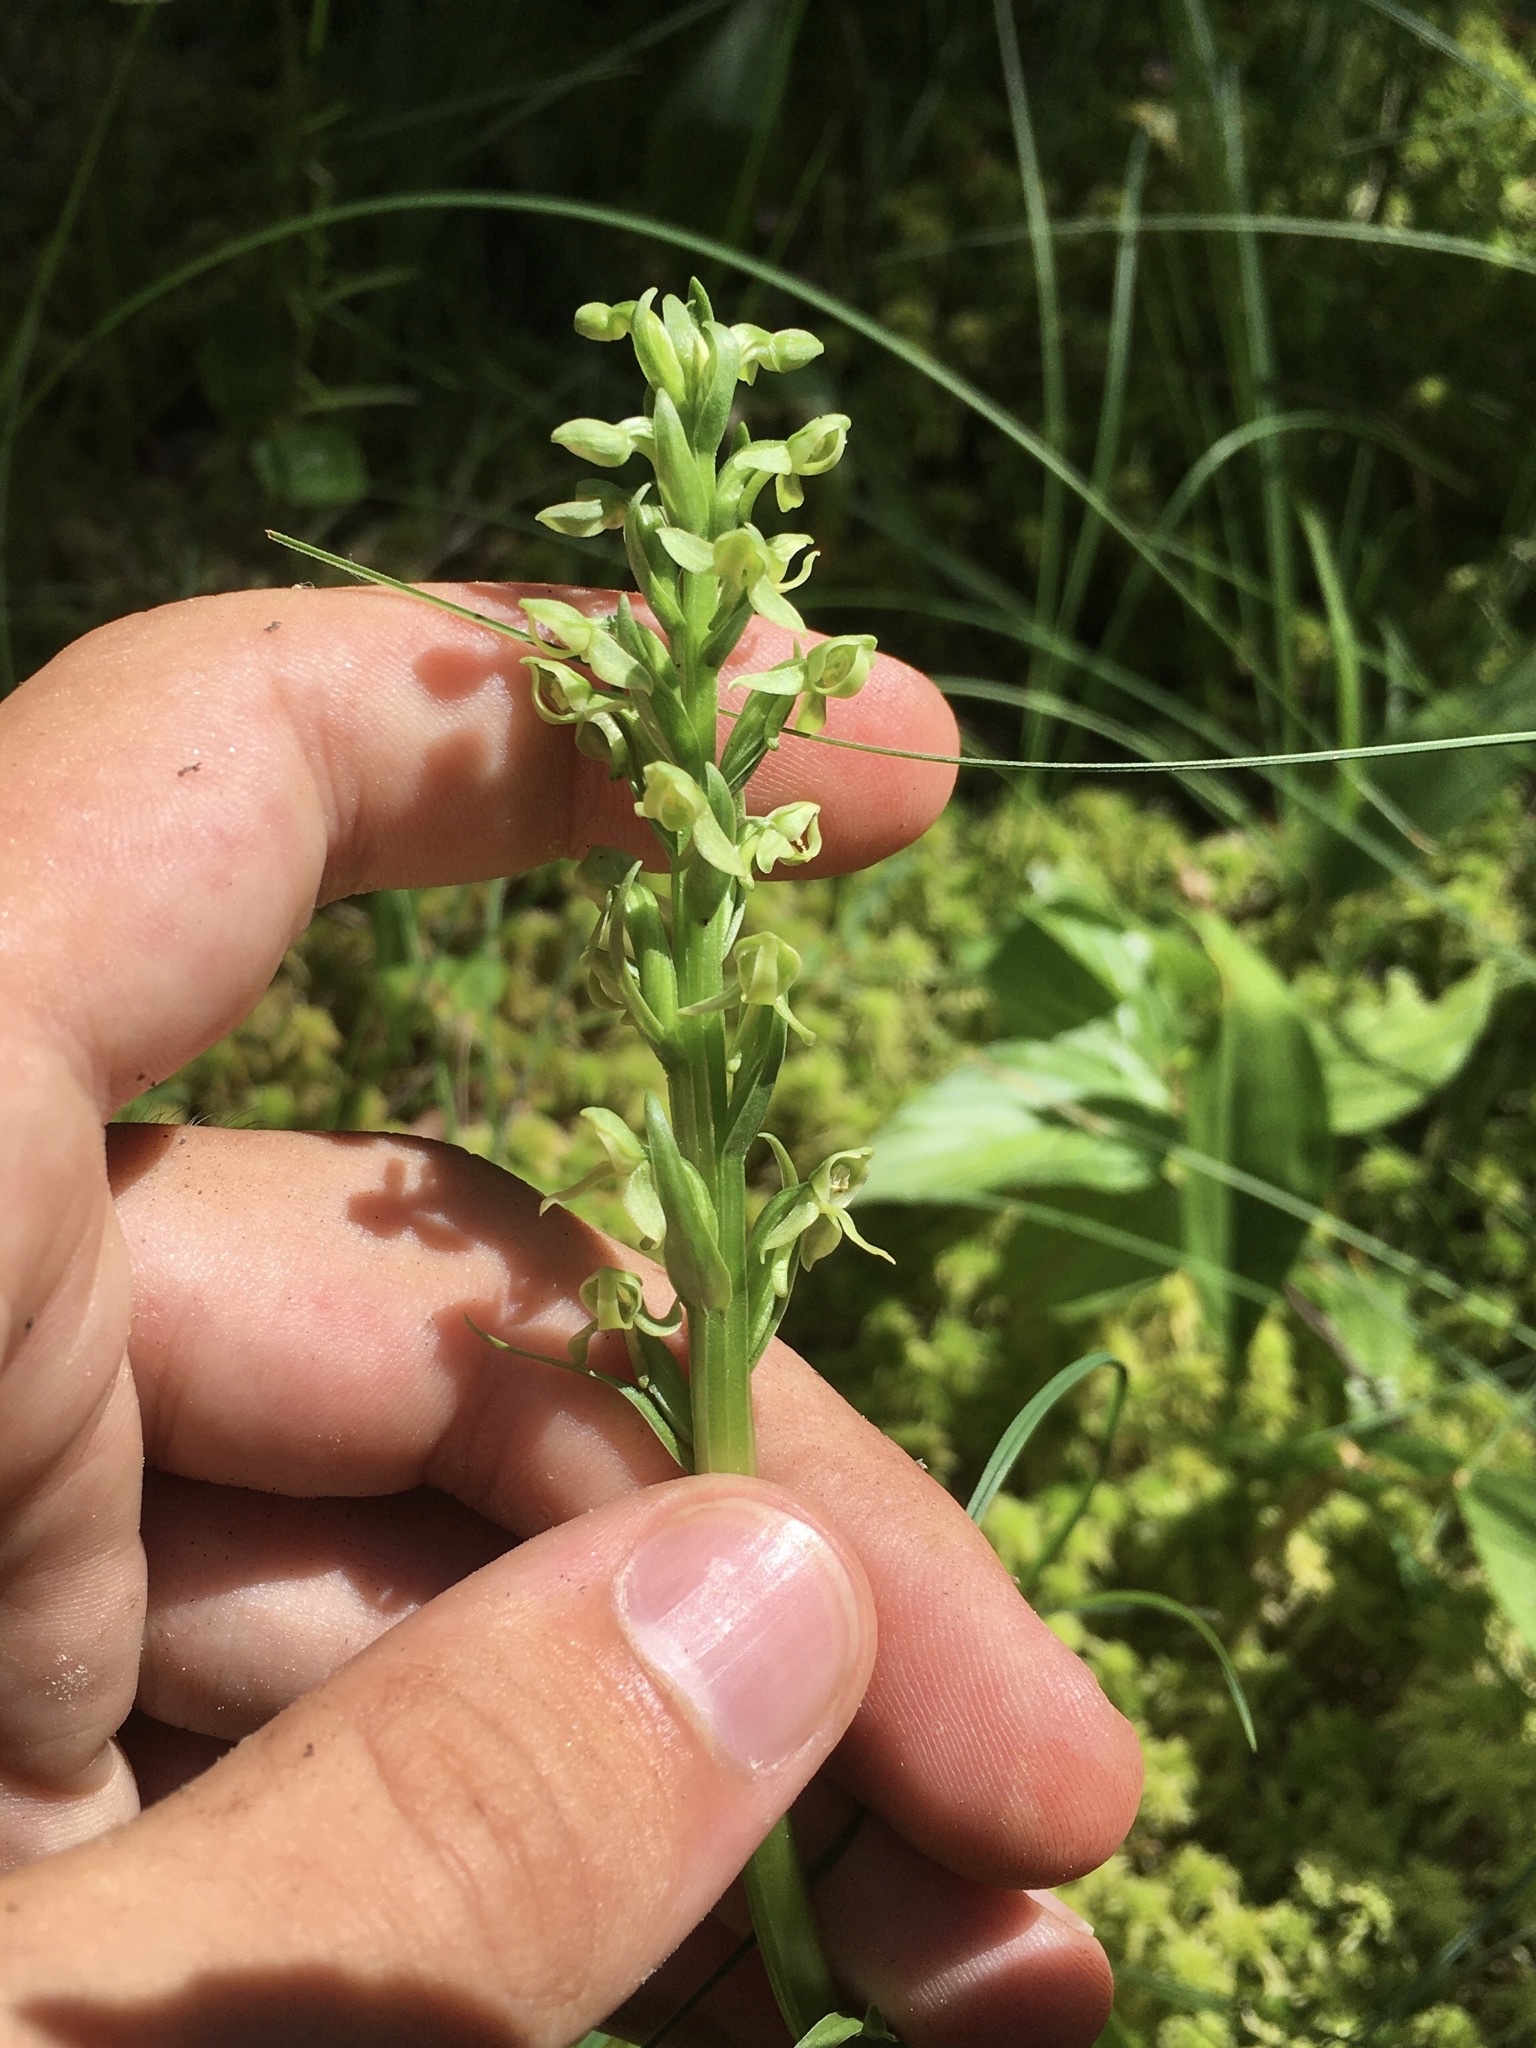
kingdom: Plantae
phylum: Tracheophyta
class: Liliopsida
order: Asparagales
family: Orchidaceae
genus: Platanthera
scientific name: Platanthera huronensis
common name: Fragrant green orchid
